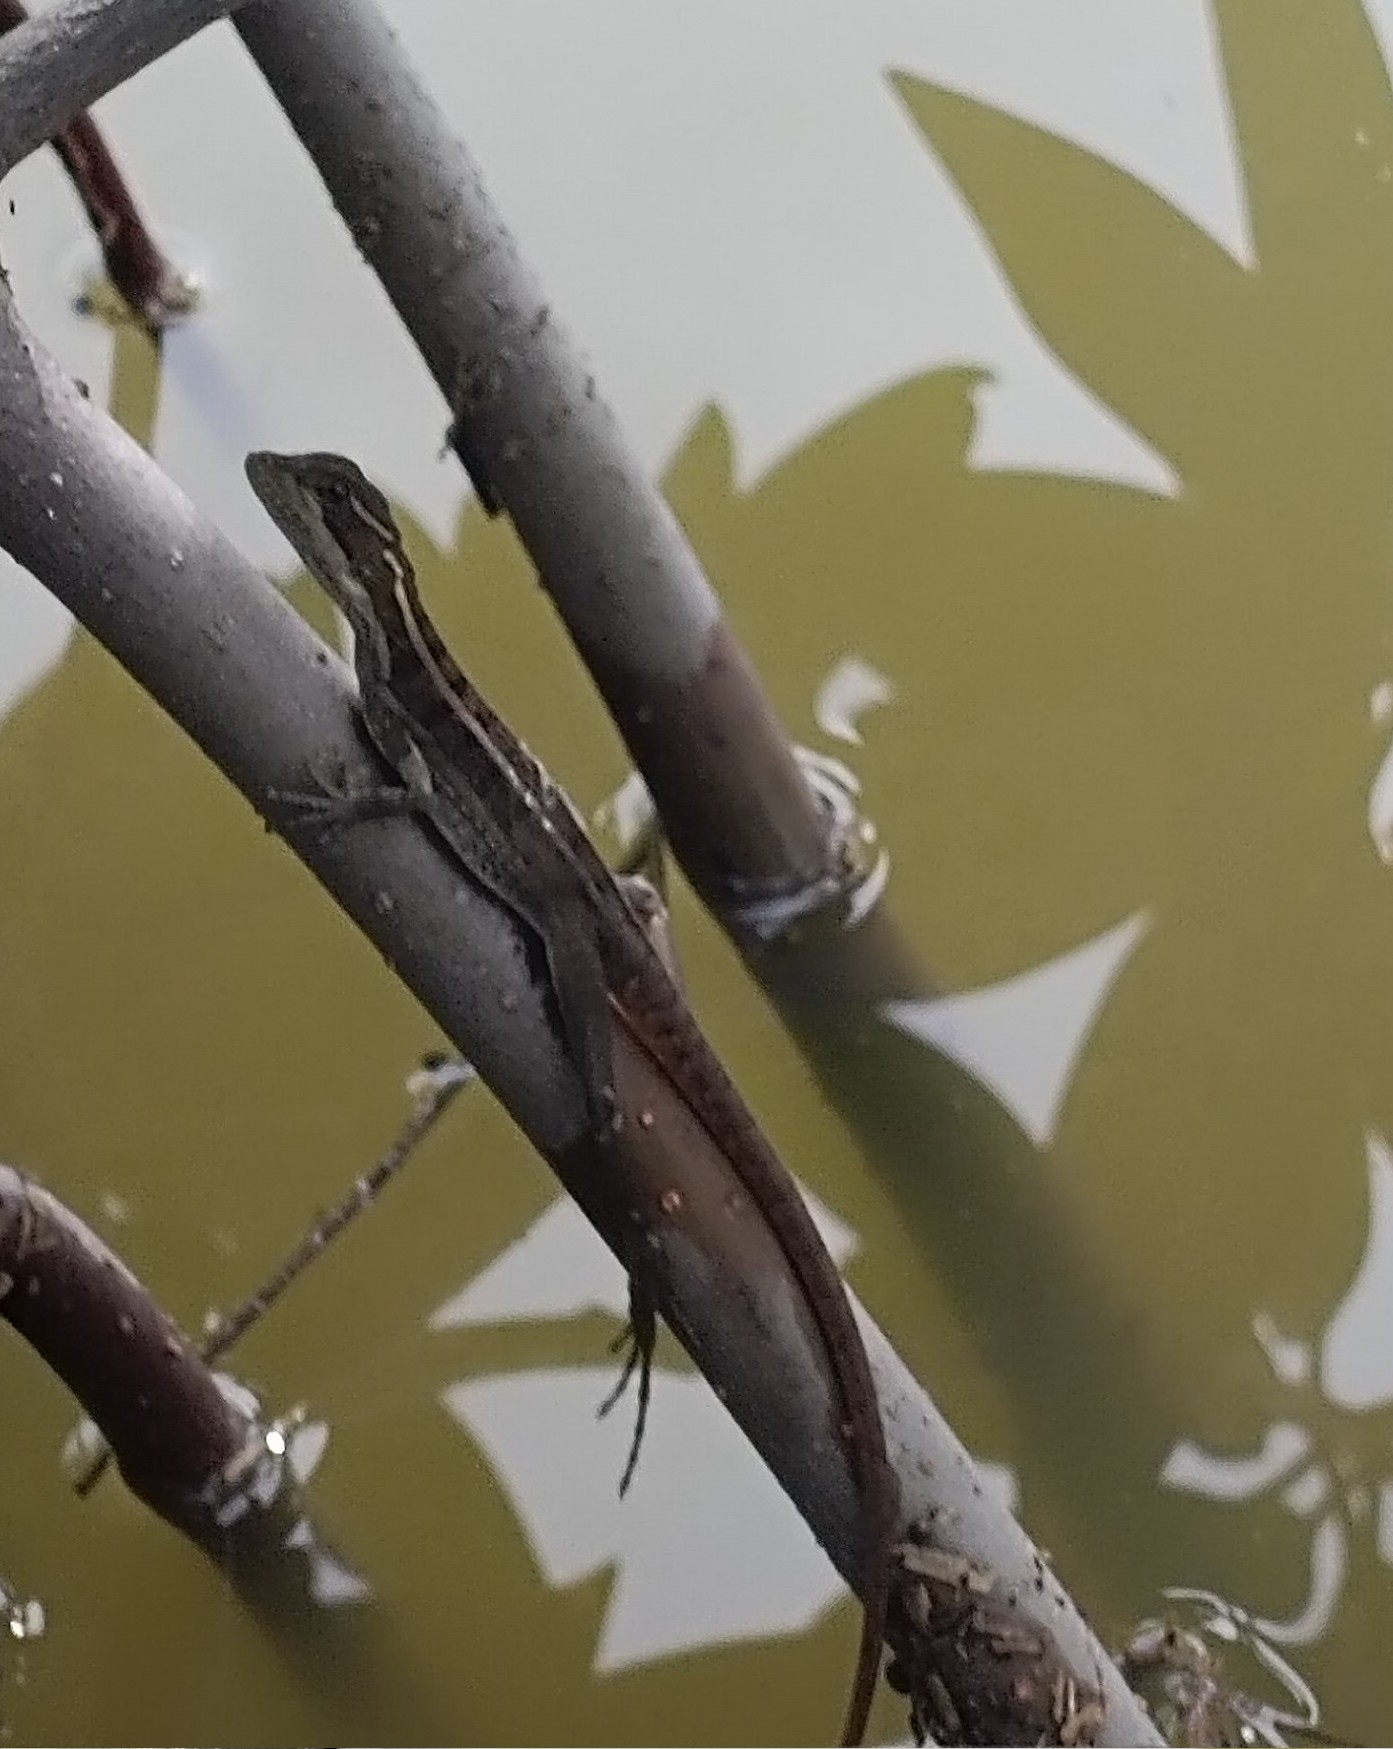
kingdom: Animalia
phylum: Chordata
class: Squamata
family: Corytophanidae
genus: Basiliscus
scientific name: Basiliscus vittatus
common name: Brown basilisk
